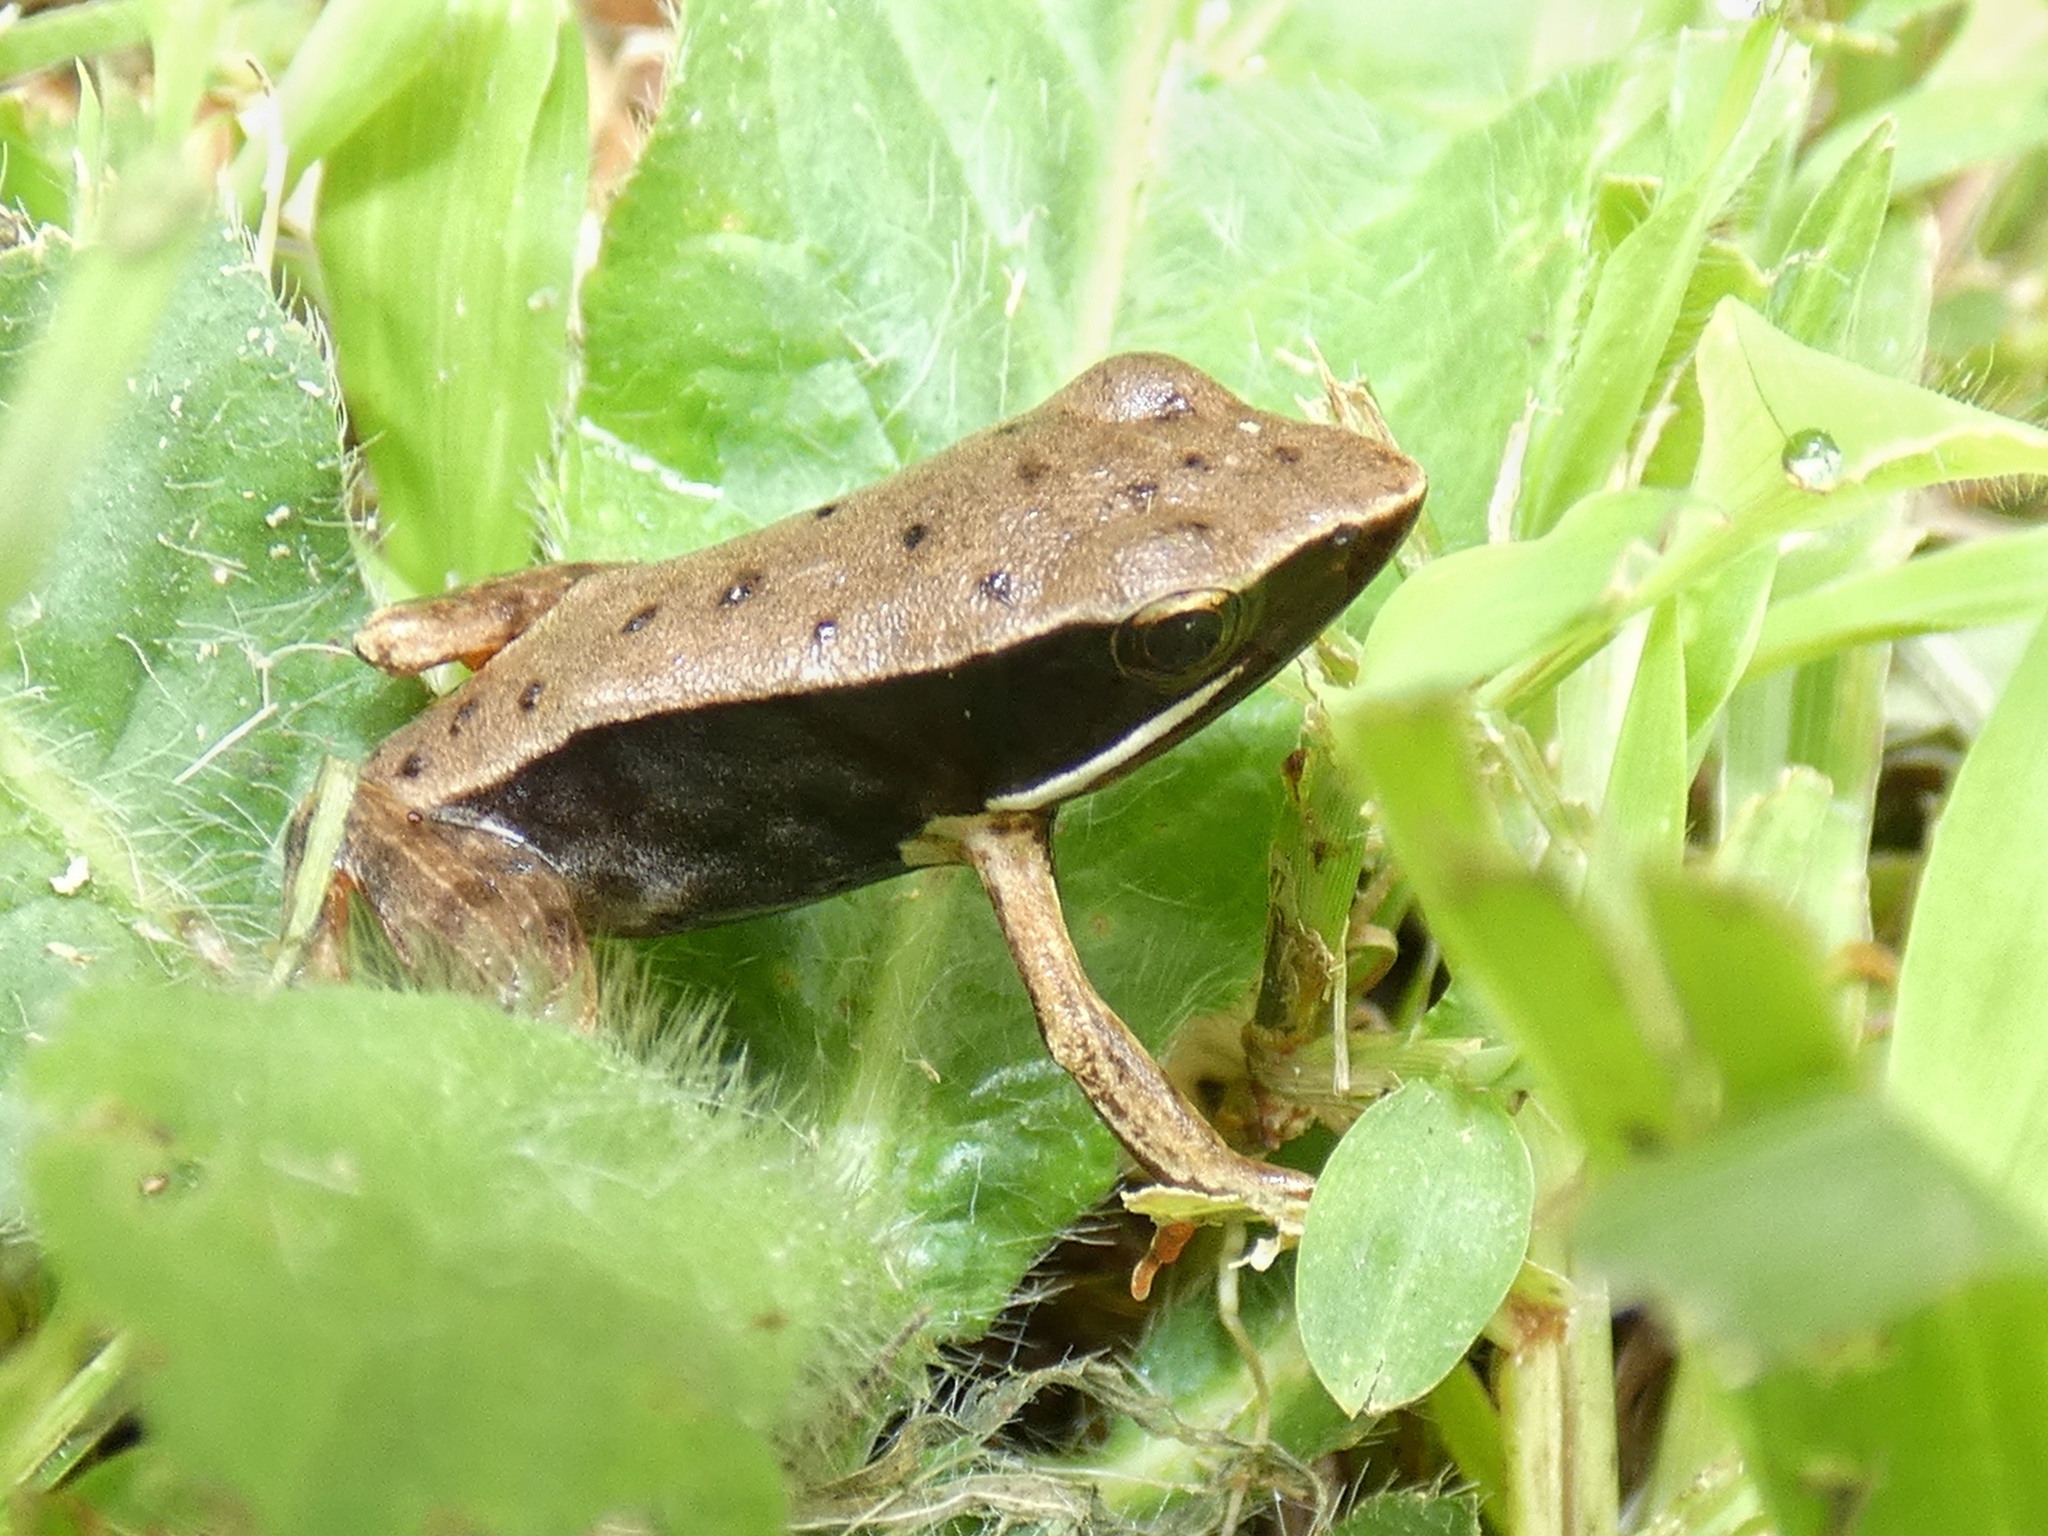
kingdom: Animalia
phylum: Chordata
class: Amphibia
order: Anura
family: Ranidae
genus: Lithobates
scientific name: Lithobates warszewitschii
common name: Warszewitsch's frog
